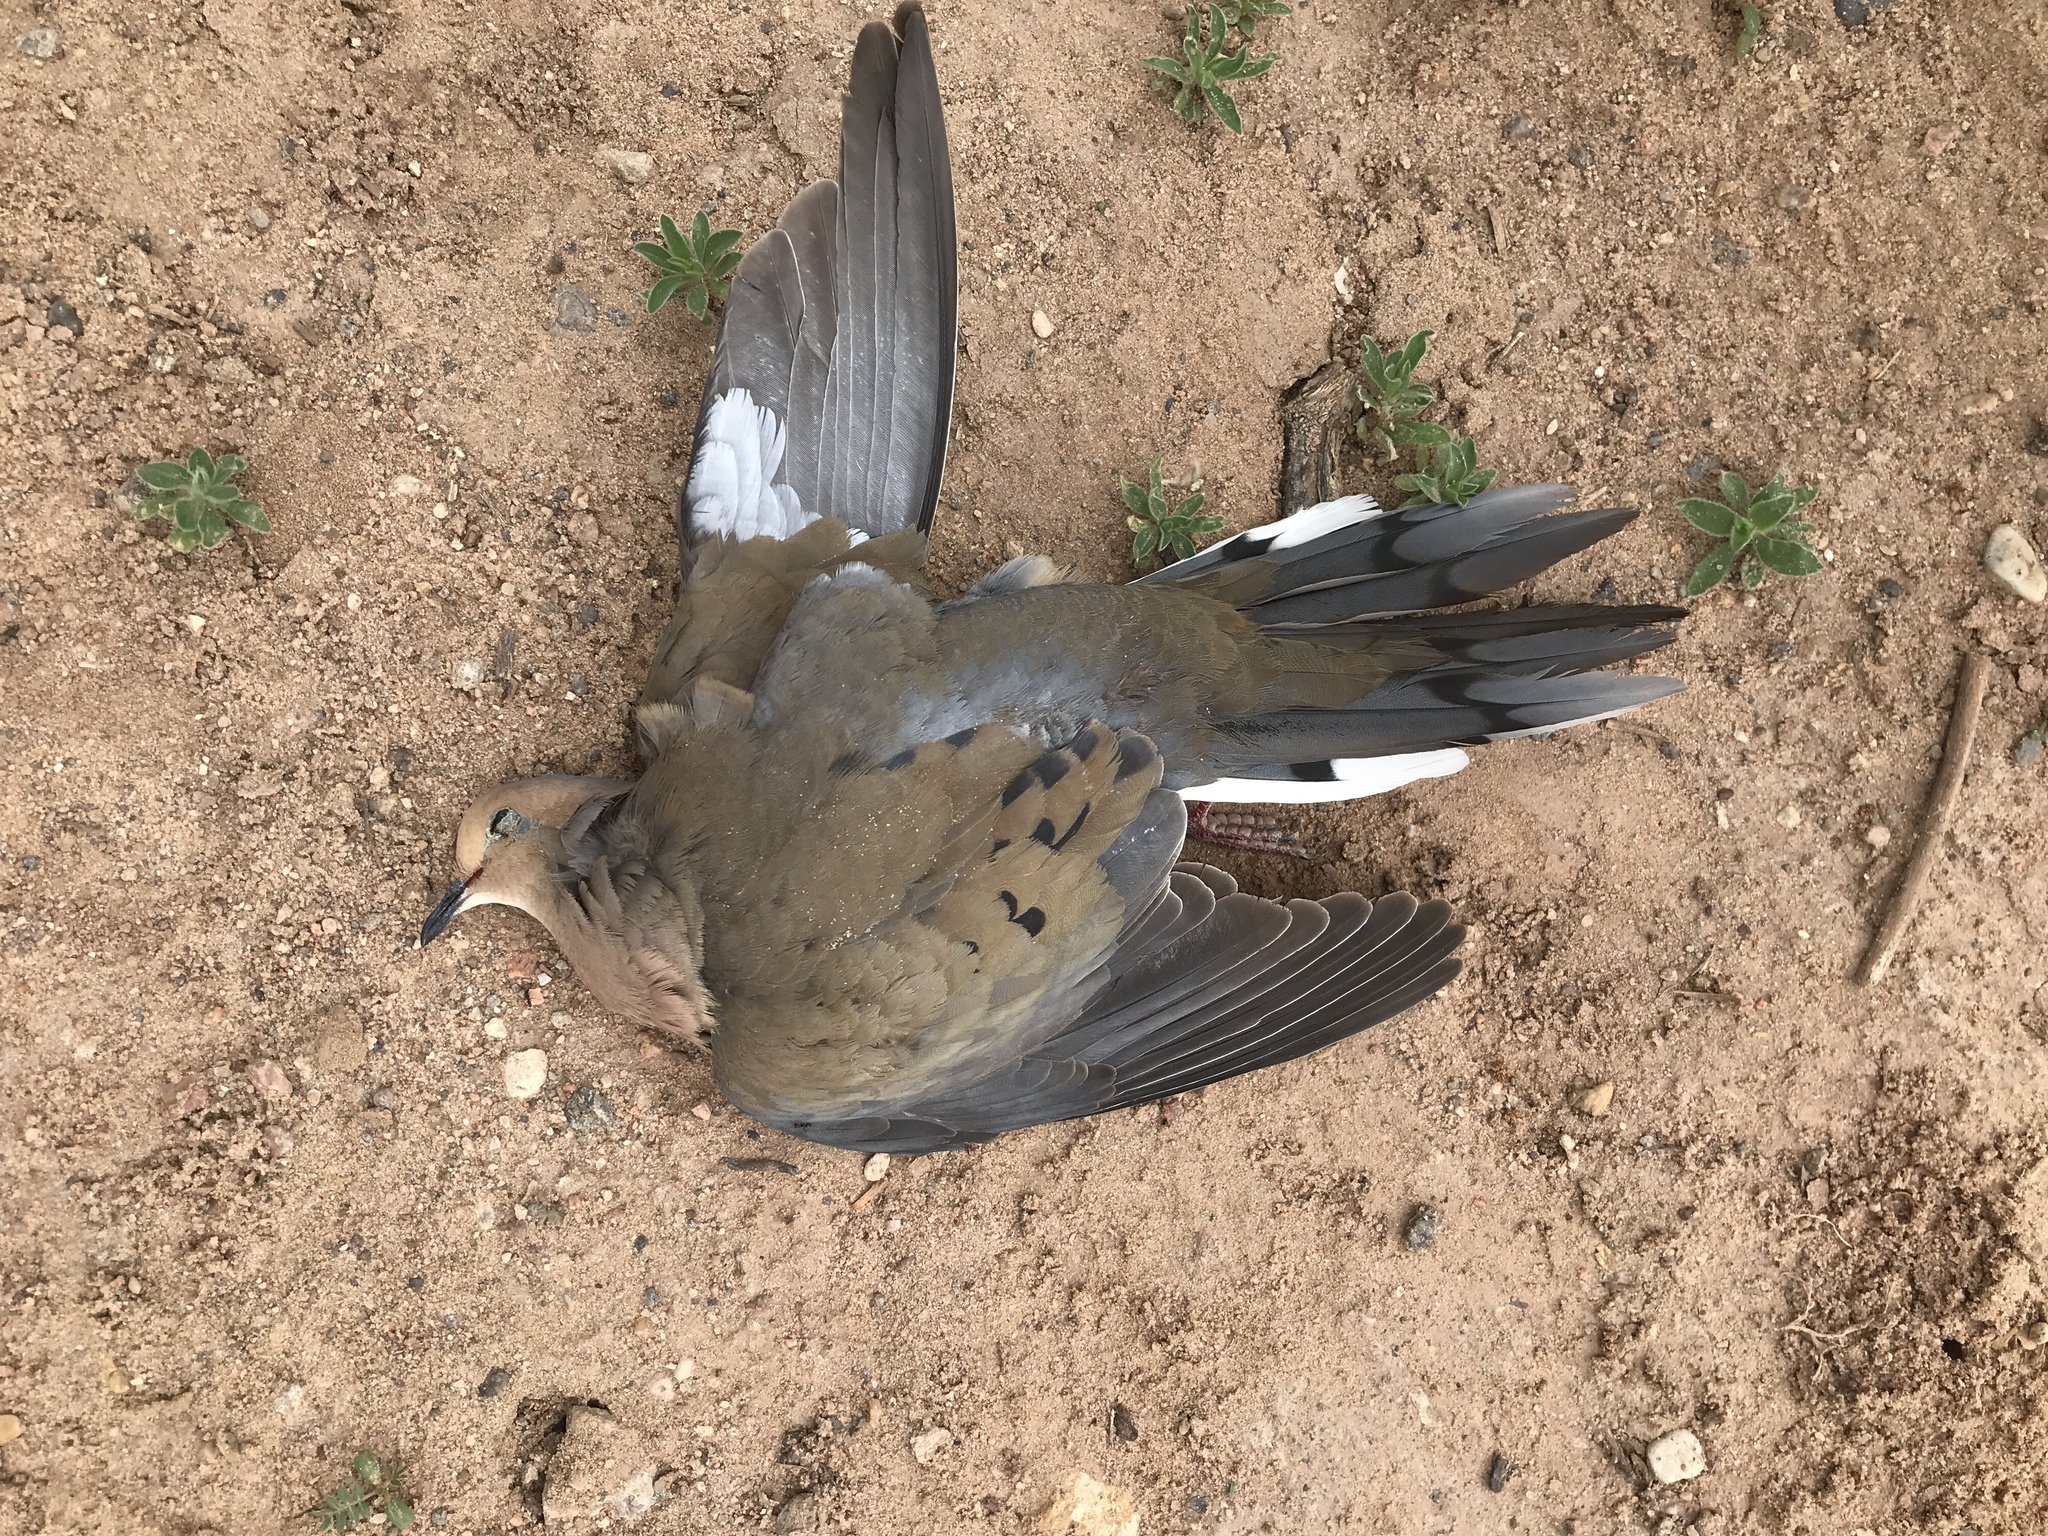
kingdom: Animalia
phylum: Chordata
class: Aves
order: Columbiformes
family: Columbidae
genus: Zenaida
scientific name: Zenaida macroura
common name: Mourning dove
